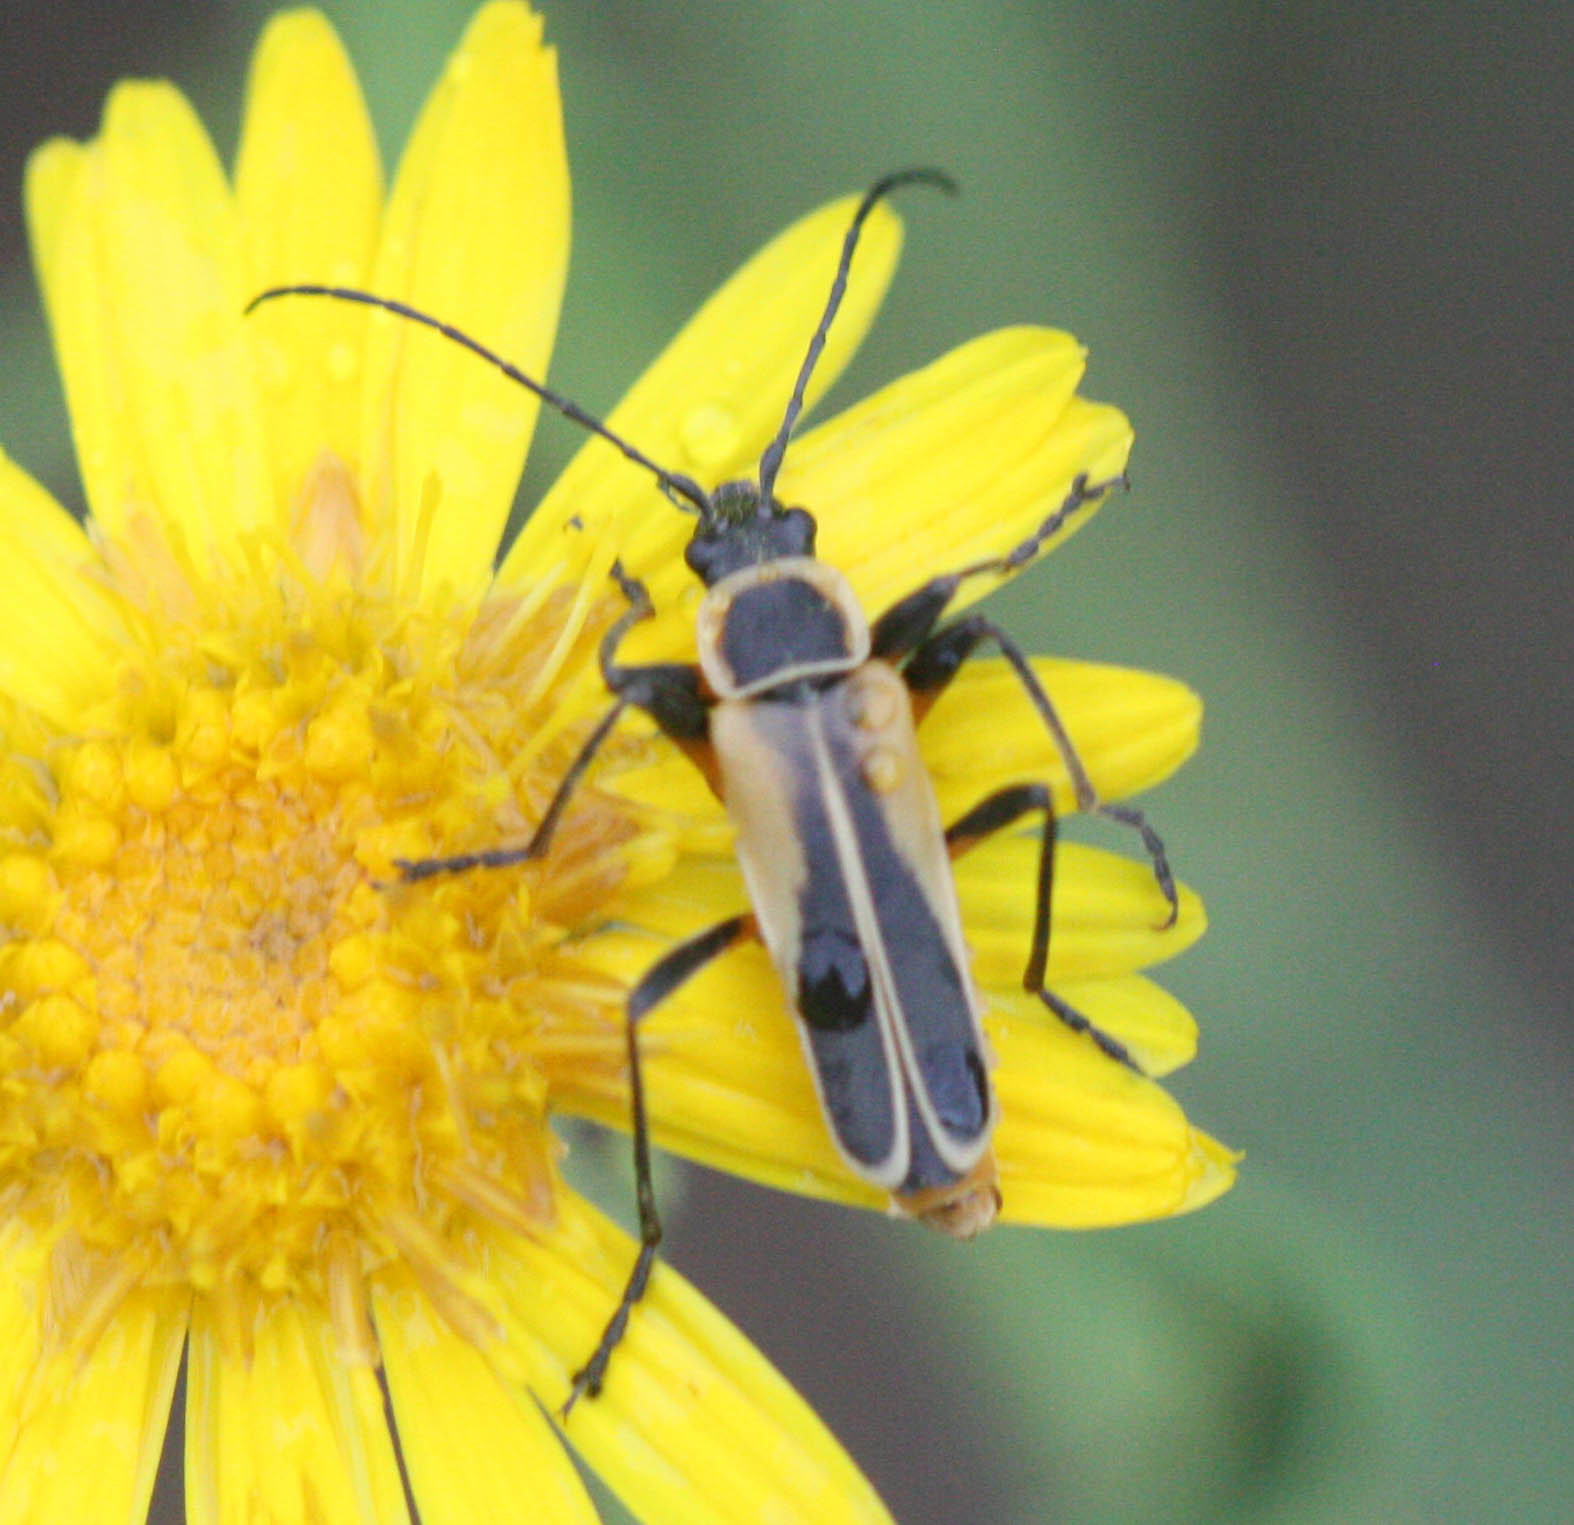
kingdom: Animalia
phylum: Arthropoda
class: Insecta
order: Coleoptera
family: Cantharidae
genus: Chauliognathus
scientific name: Chauliognathus opacus
